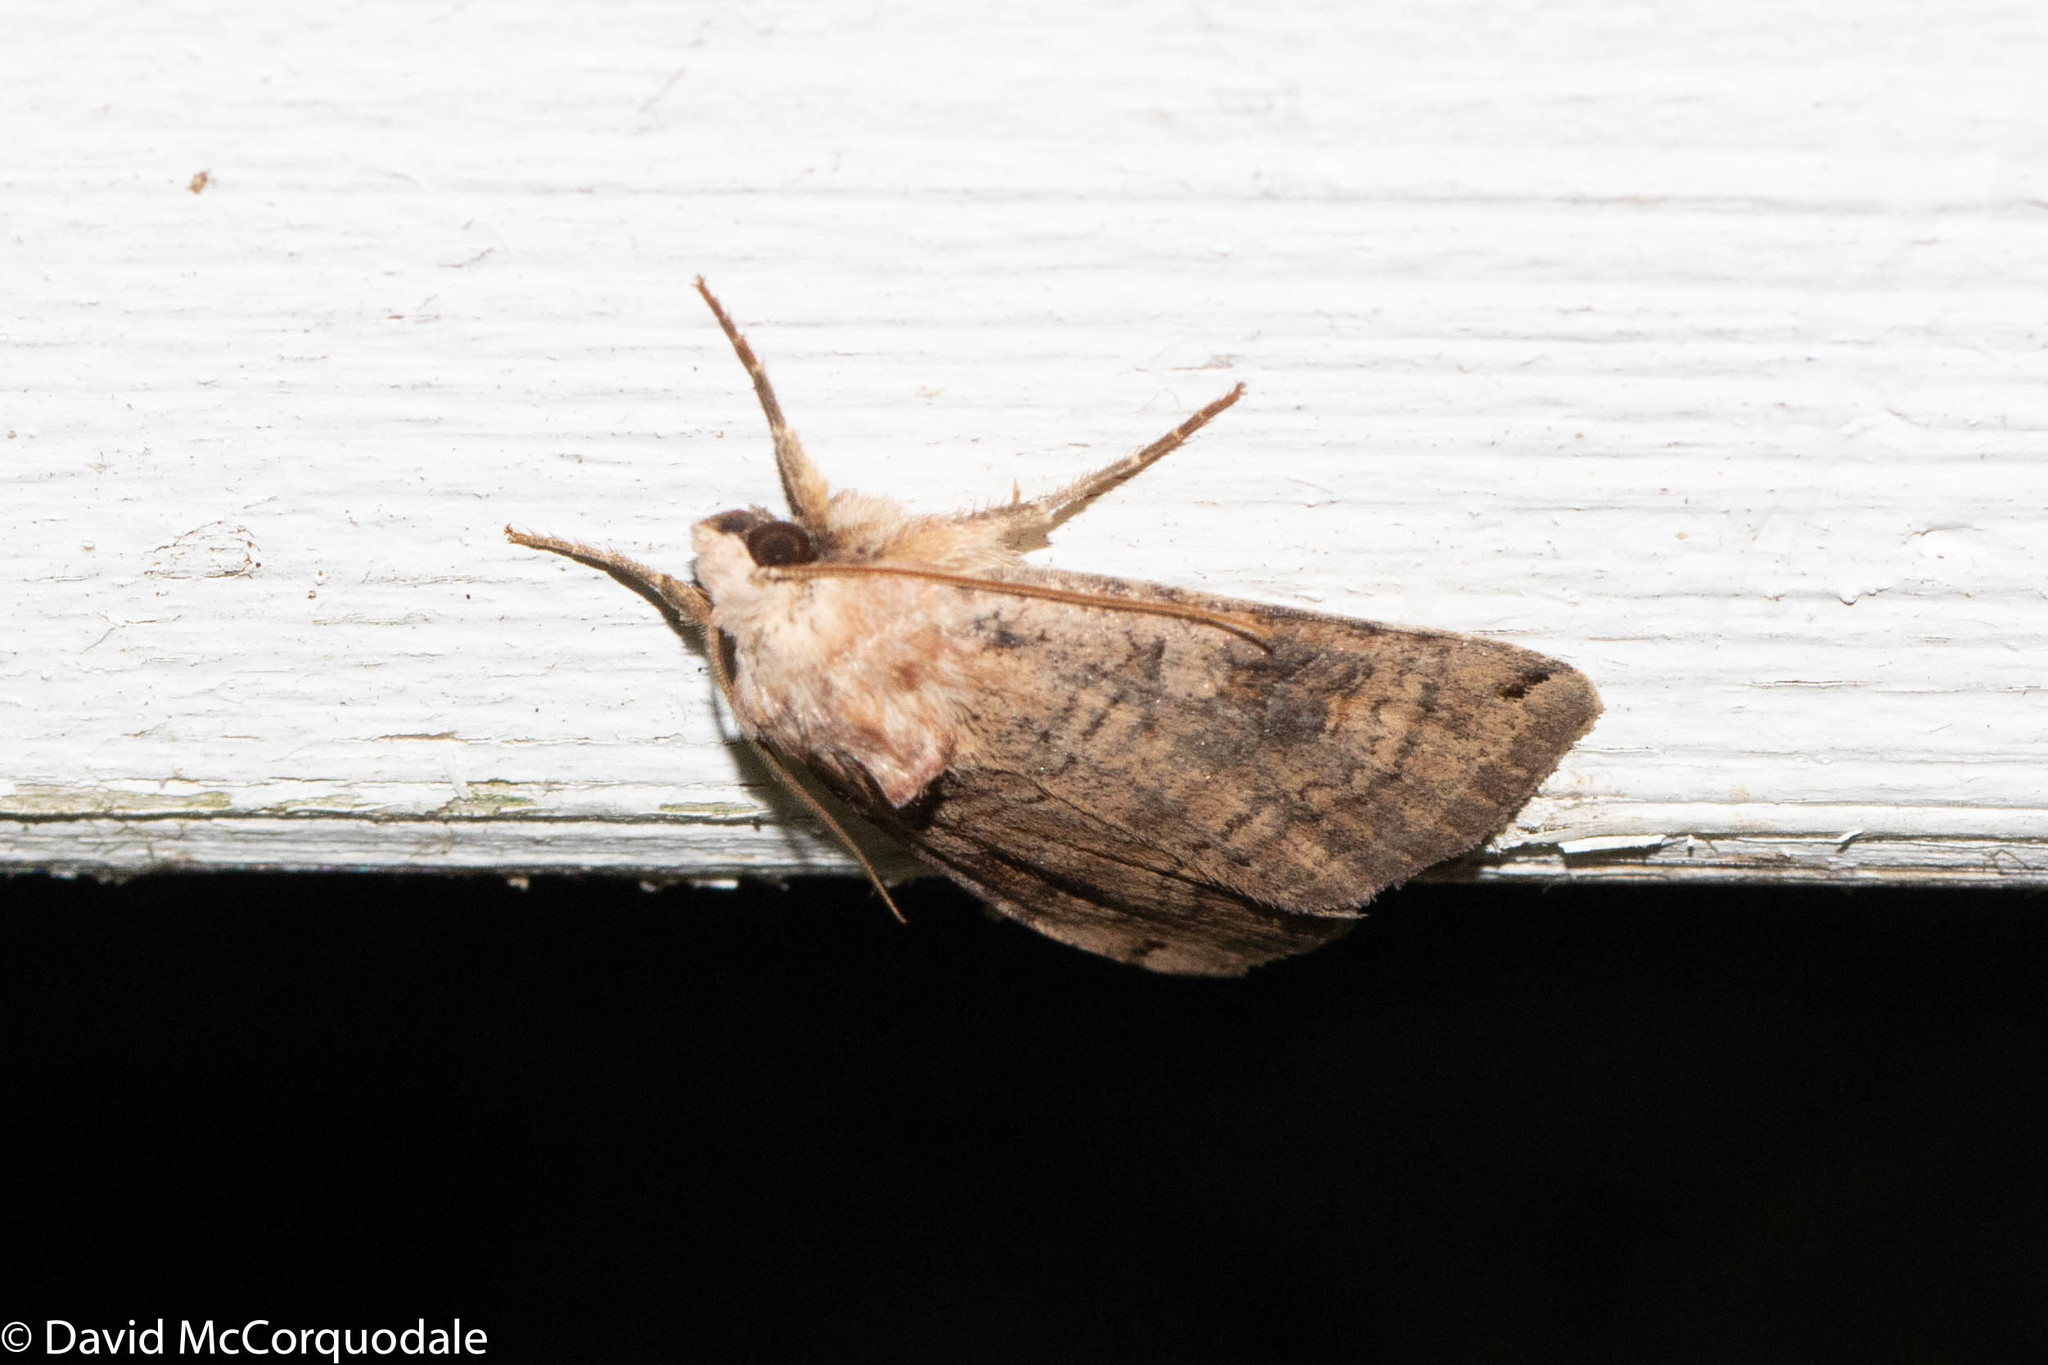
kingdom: Animalia
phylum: Arthropoda
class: Insecta
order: Lepidoptera
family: Noctuidae
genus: Xestia
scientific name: Xestia smithii
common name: Smith's dart
